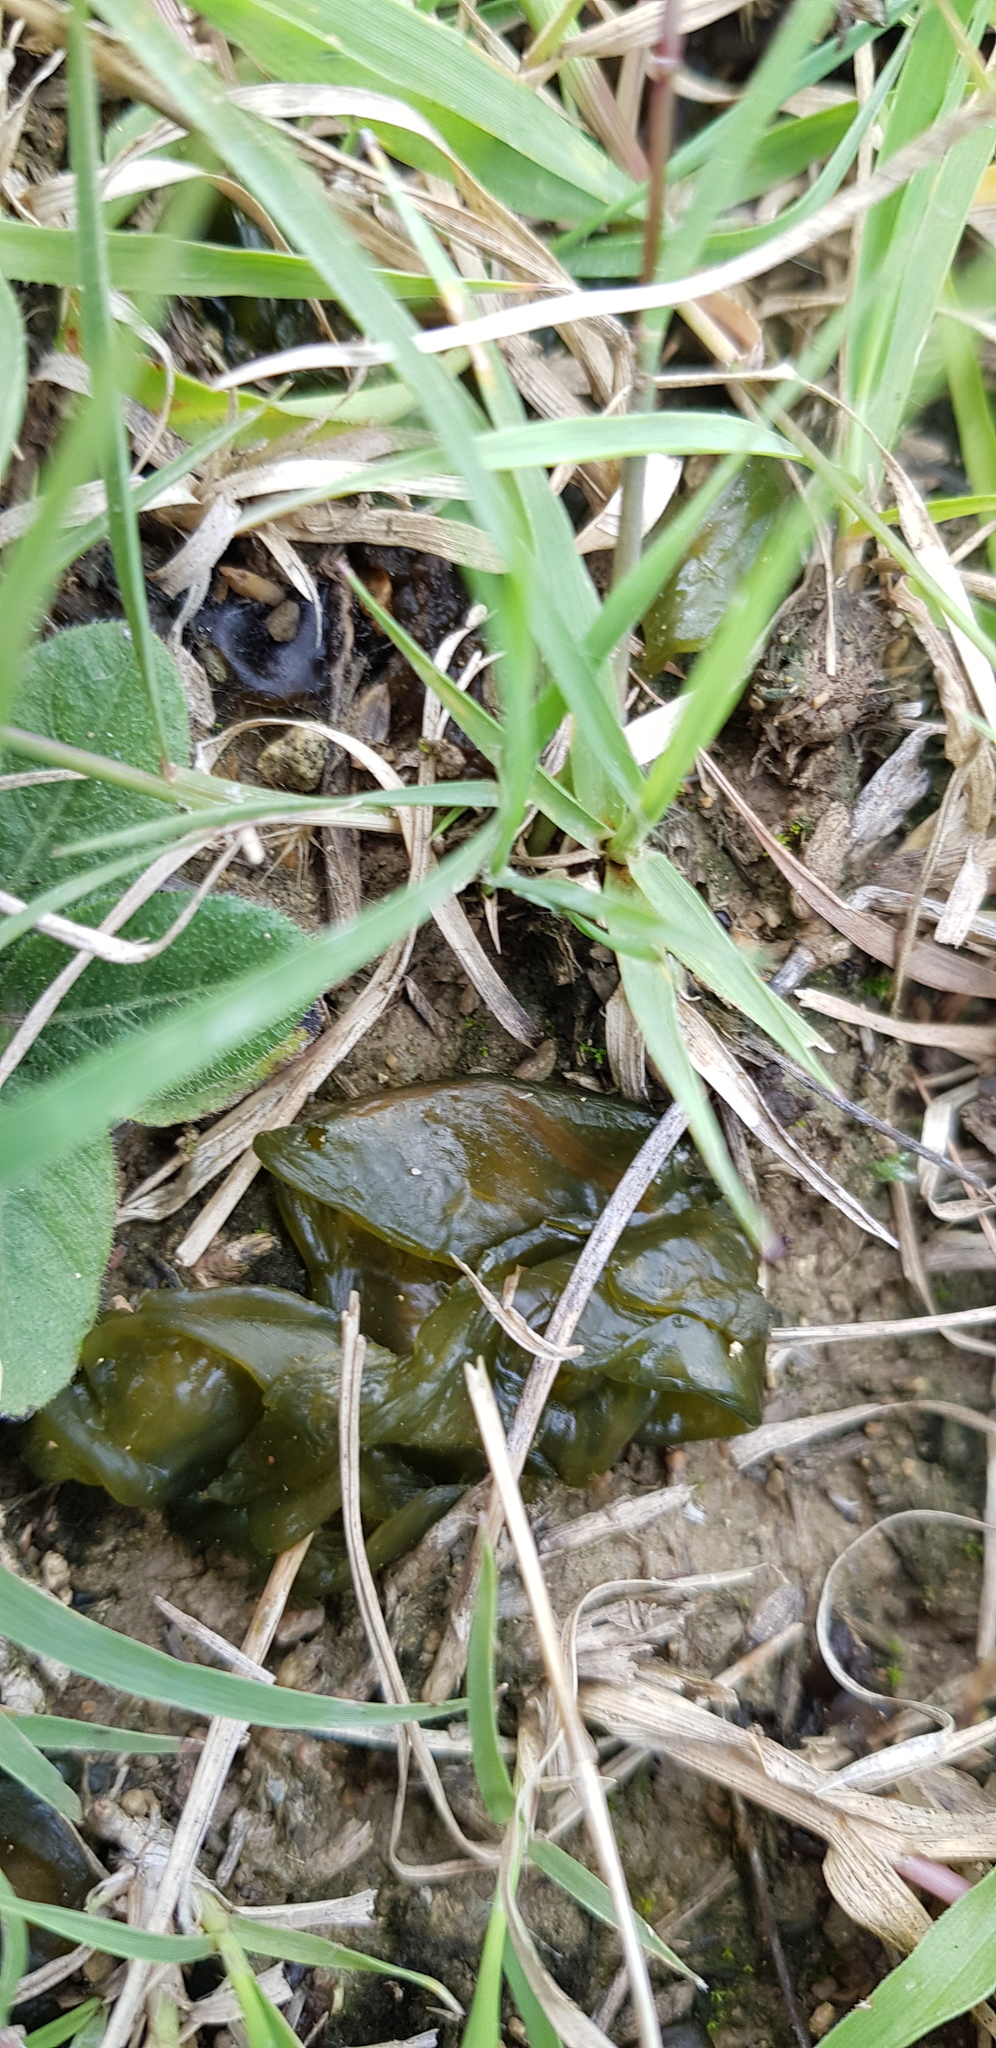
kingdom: Bacteria
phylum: Cyanobacteria
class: Cyanobacteriia
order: Cyanobacteriales
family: Nostocaceae
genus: Nostoc
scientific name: Nostoc commune
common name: Star jelly
